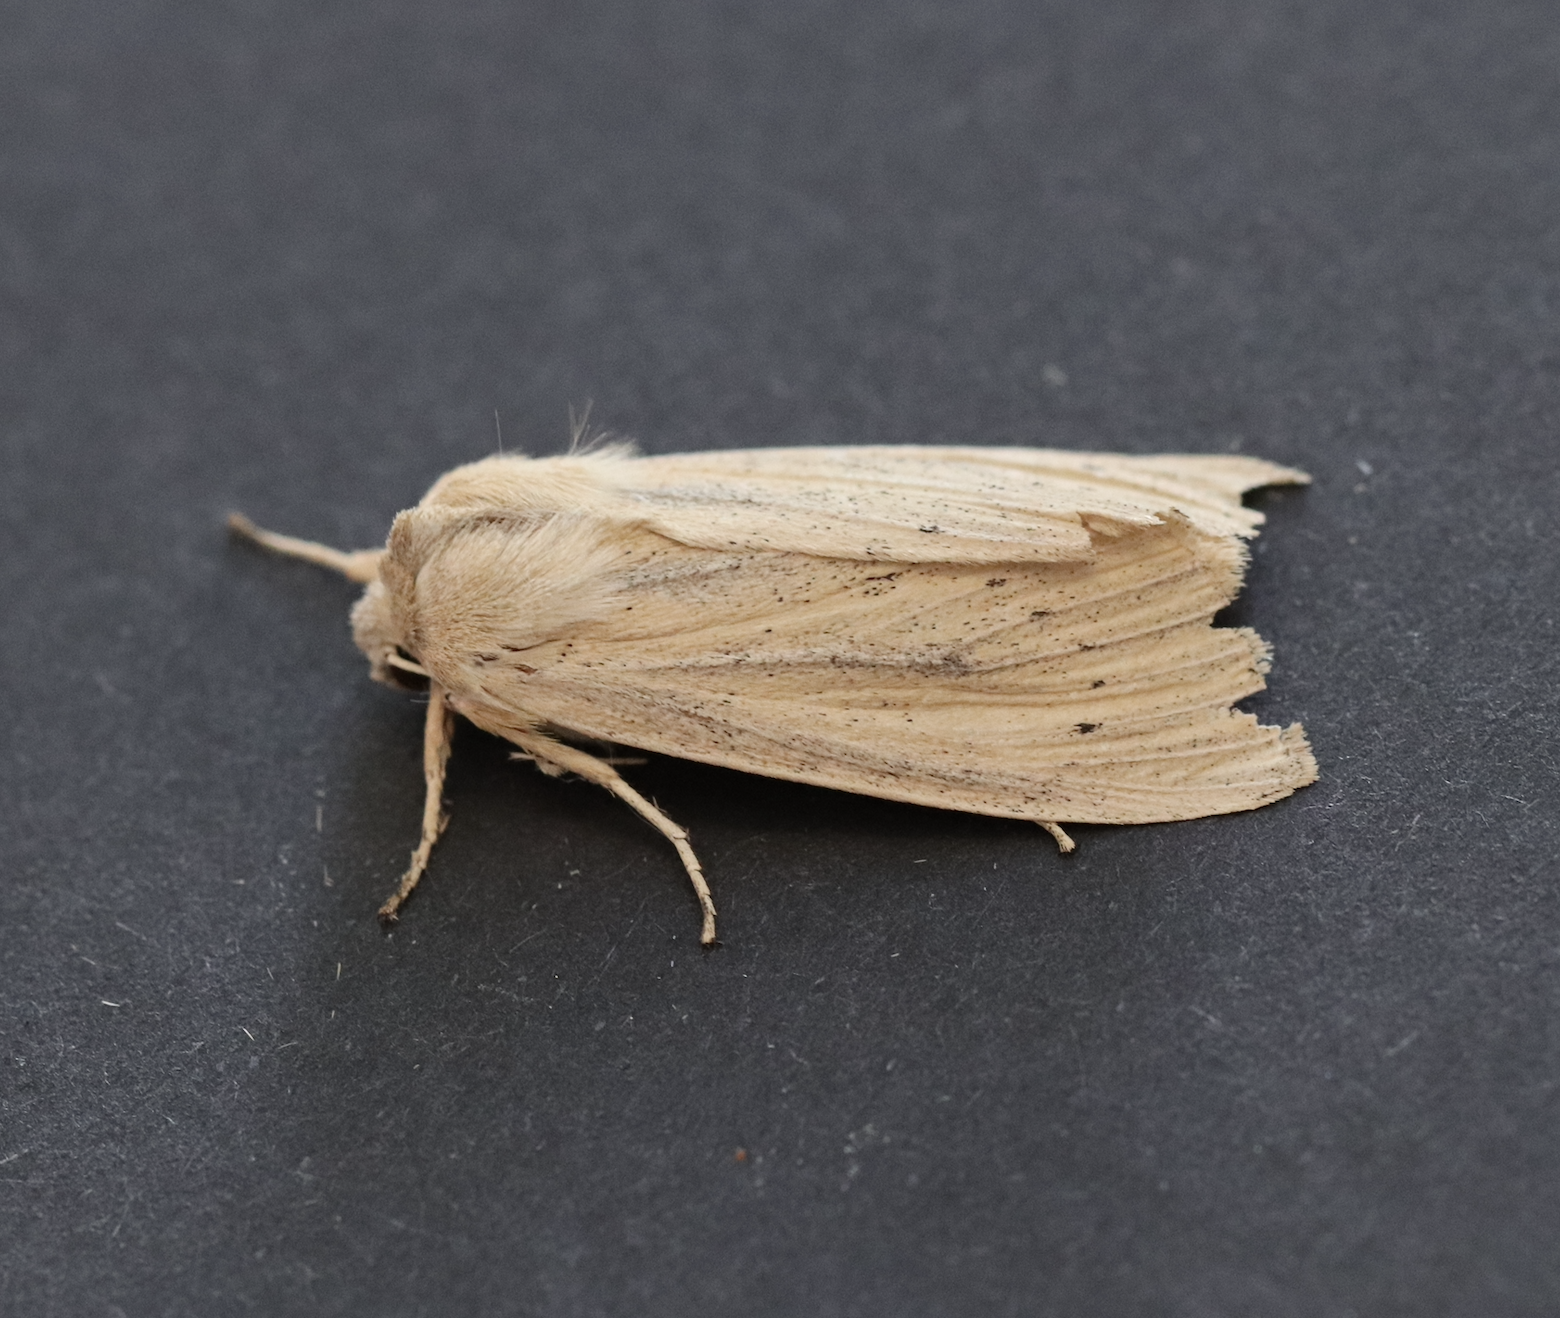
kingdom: Animalia
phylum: Arthropoda
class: Insecta
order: Lepidoptera
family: Noctuidae
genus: Rhizedra
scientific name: Rhizedra lutosa
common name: Large wainscot
